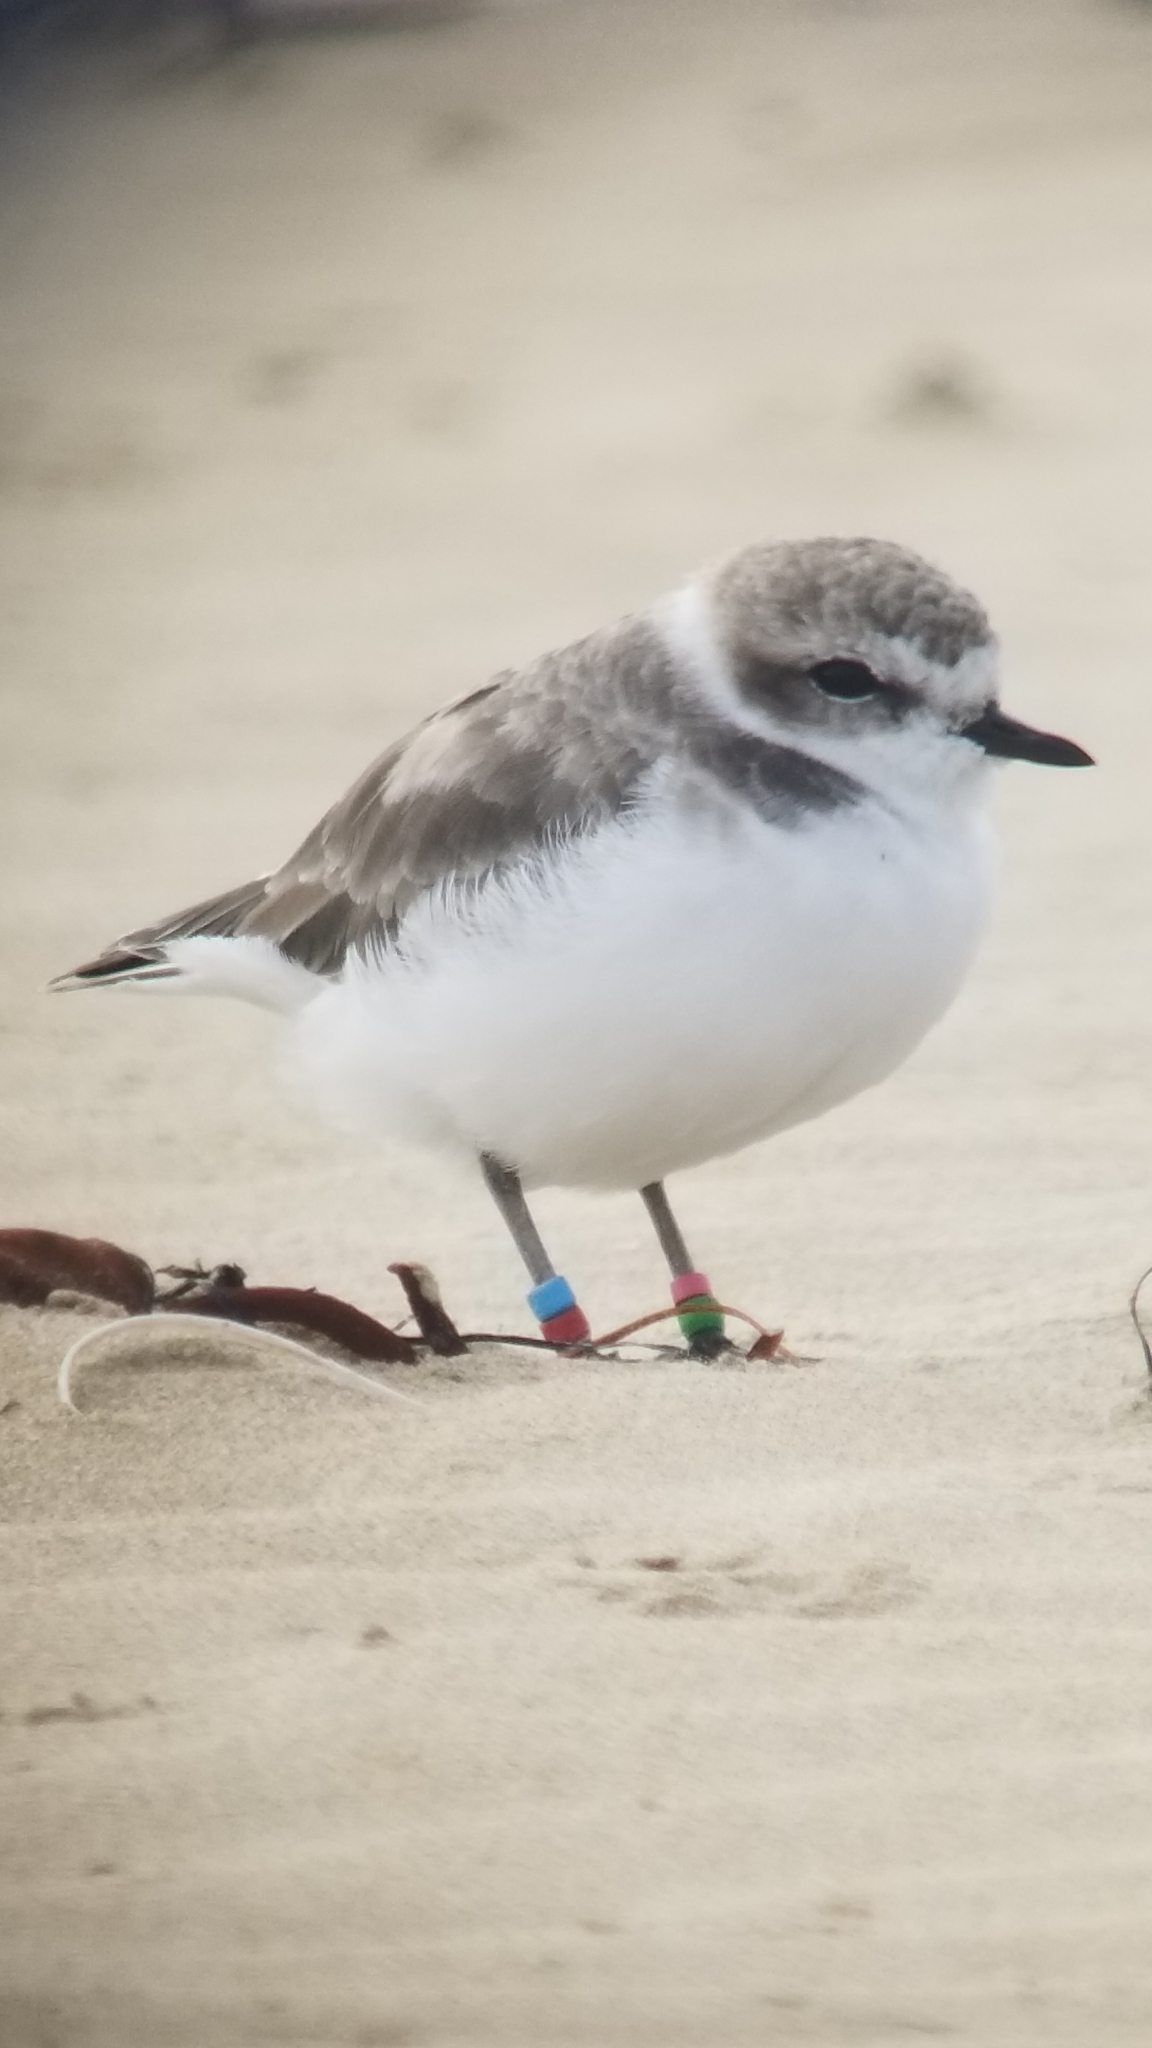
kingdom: Animalia
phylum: Chordata
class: Aves
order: Charadriiformes
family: Charadriidae
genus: Anarhynchus
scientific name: Anarhynchus
